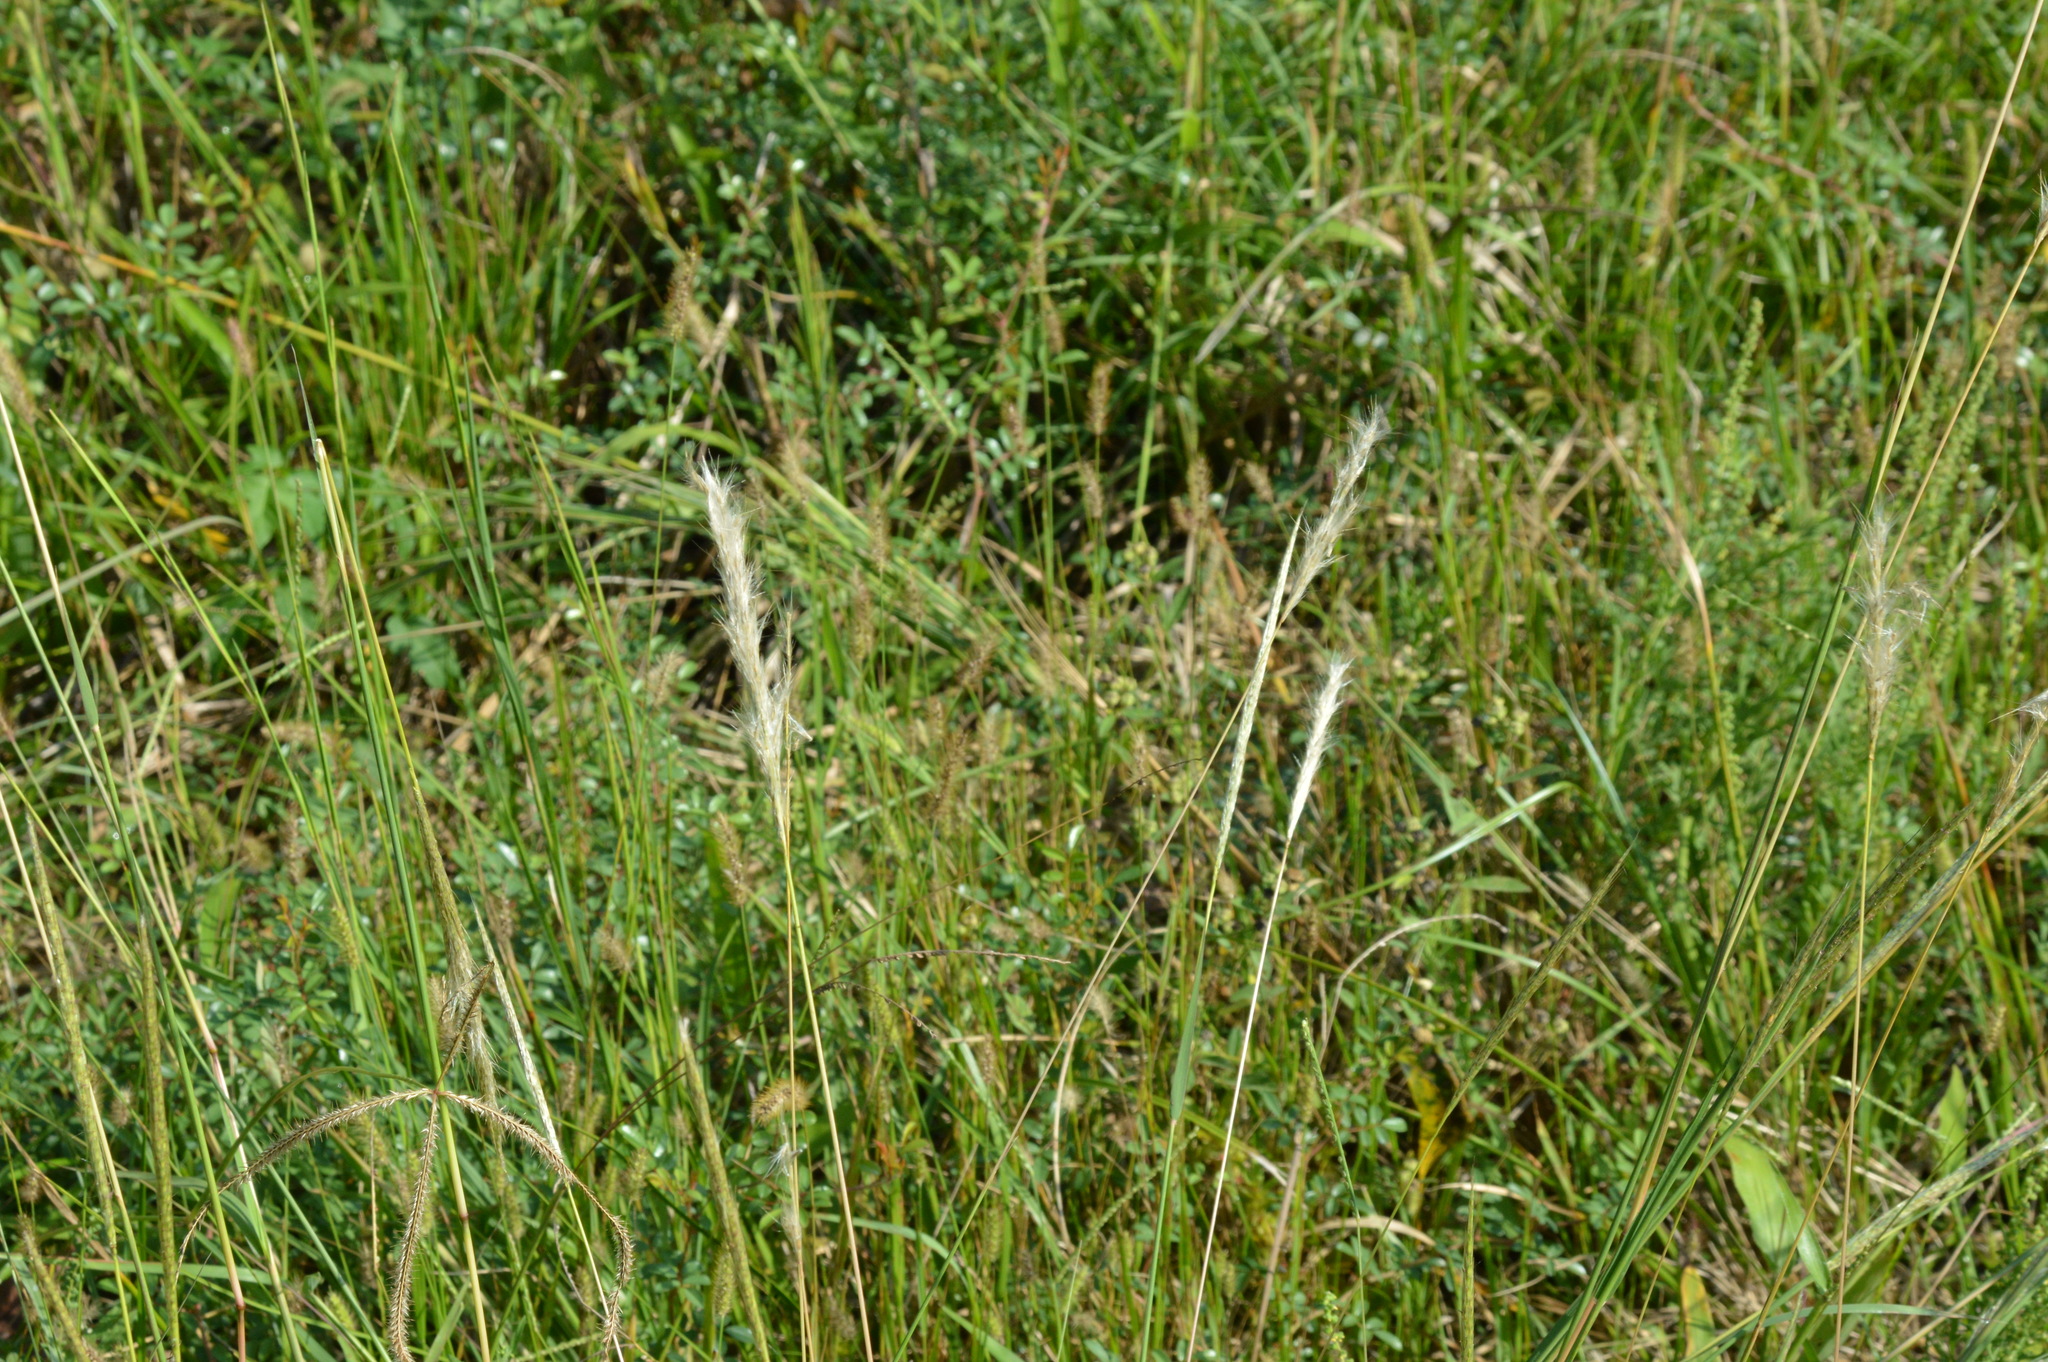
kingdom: Plantae
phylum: Tracheophyta
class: Liliopsida
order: Poales
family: Poaceae
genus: Bothriochloa
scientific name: Bothriochloa torreyana
